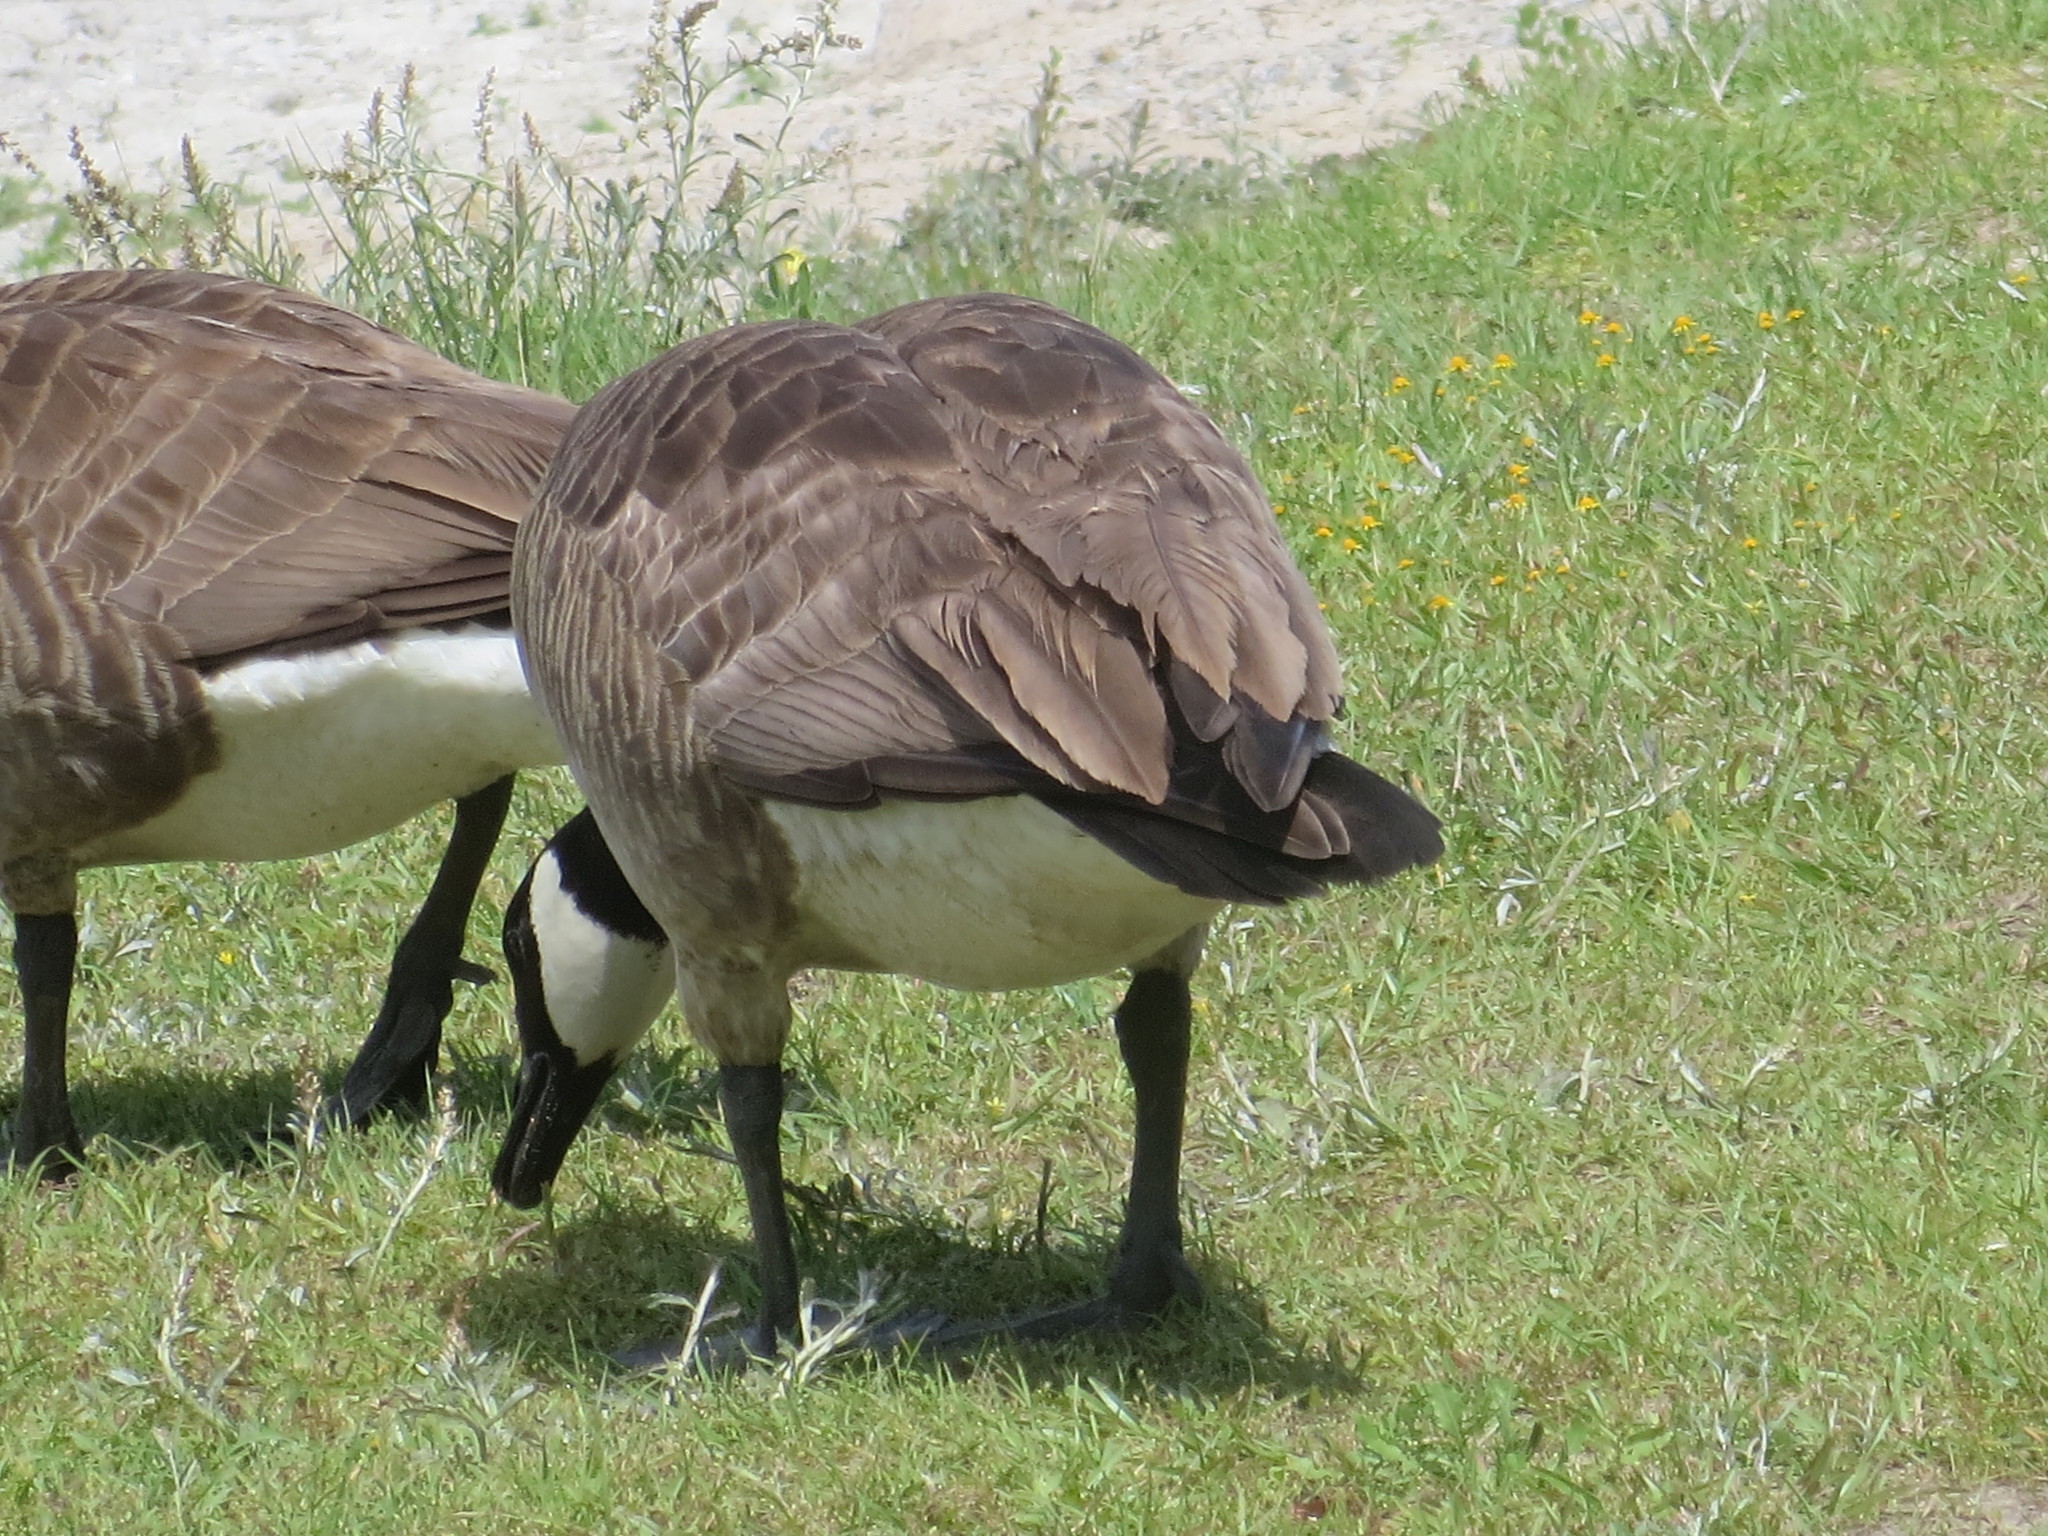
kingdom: Animalia
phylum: Chordata
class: Aves
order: Anseriformes
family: Anatidae
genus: Branta
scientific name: Branta canadensis
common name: Canada goose
